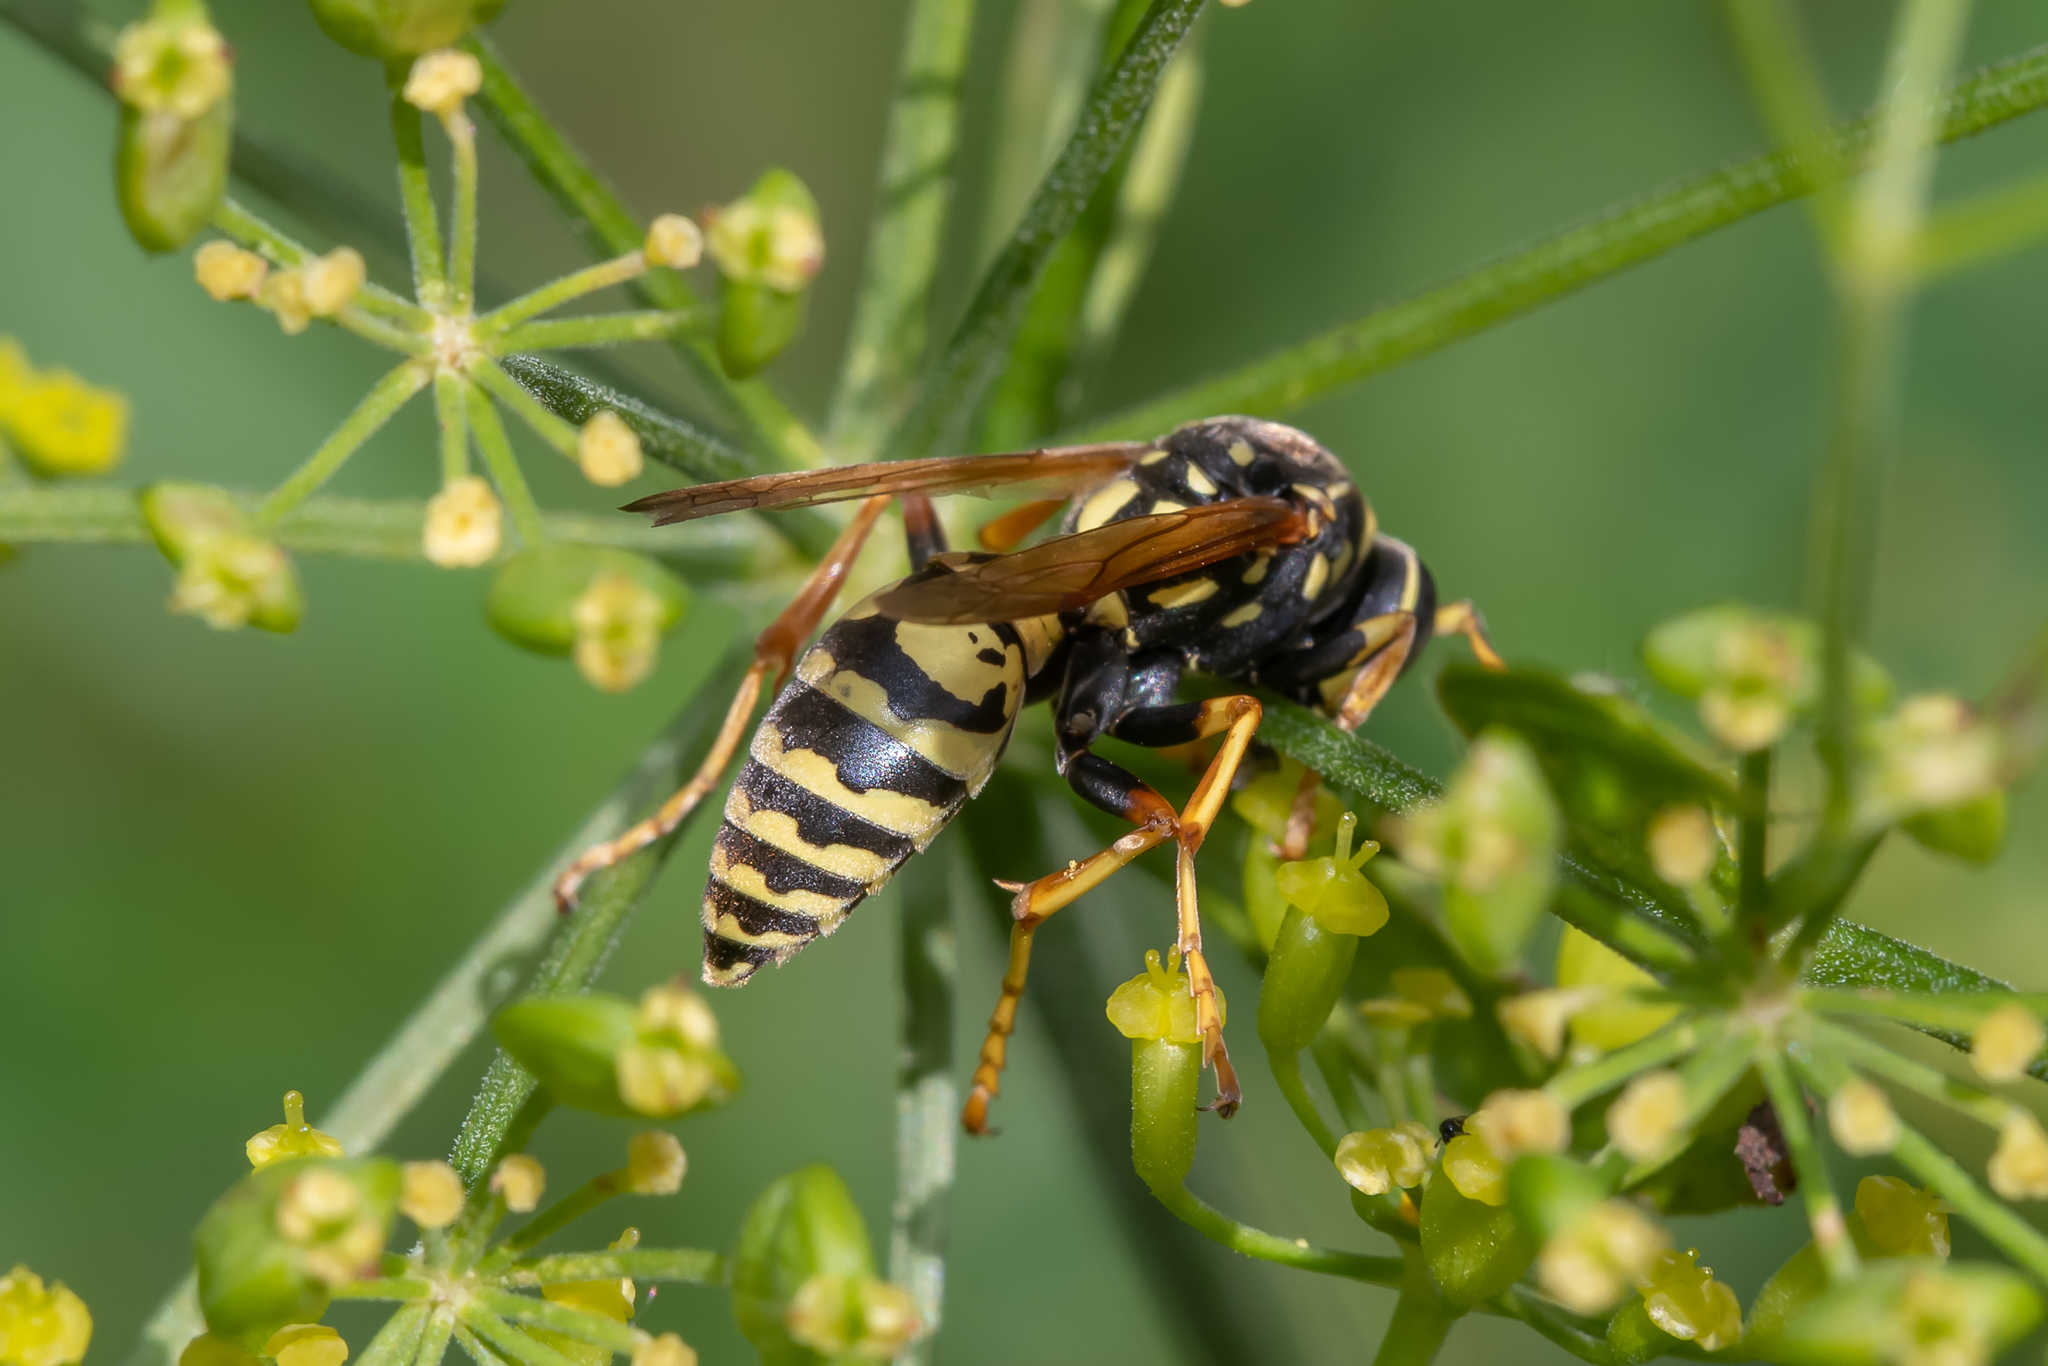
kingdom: Animalia
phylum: Arthropoda
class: Insecta
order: Hymenoptera
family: Eumenidae
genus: Polistes
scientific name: Polistes dominula
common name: Paper wasp
